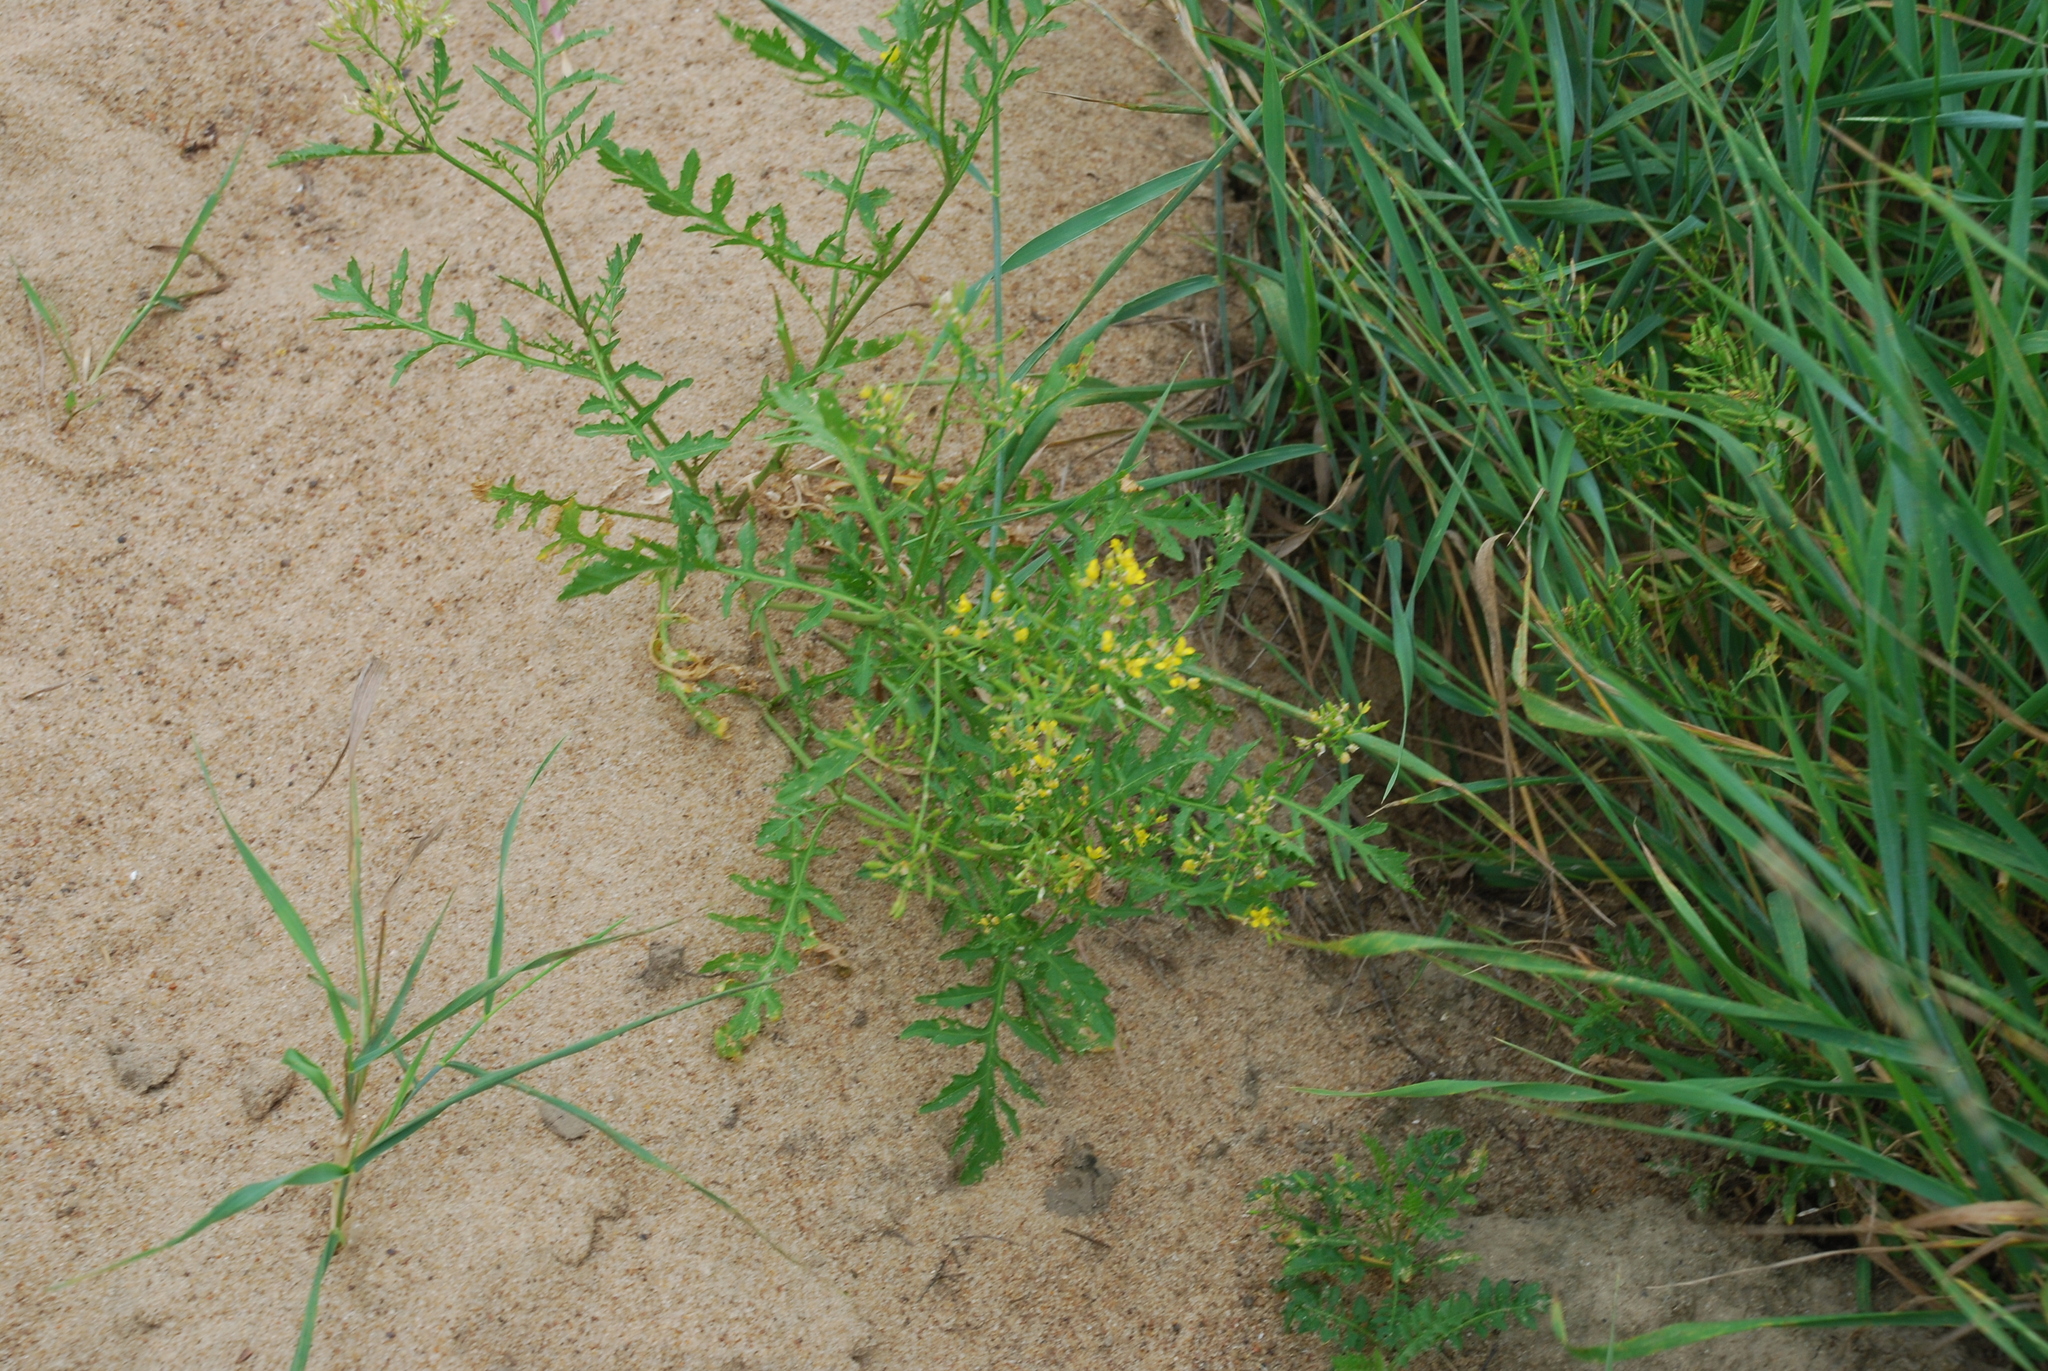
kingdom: Plantae
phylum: Tracheophyta
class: Magnoliopsida
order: Brassicales
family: Brassicaceae
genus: Rorippa
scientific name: Rorippa palustris
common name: Marsh yellow-cress
